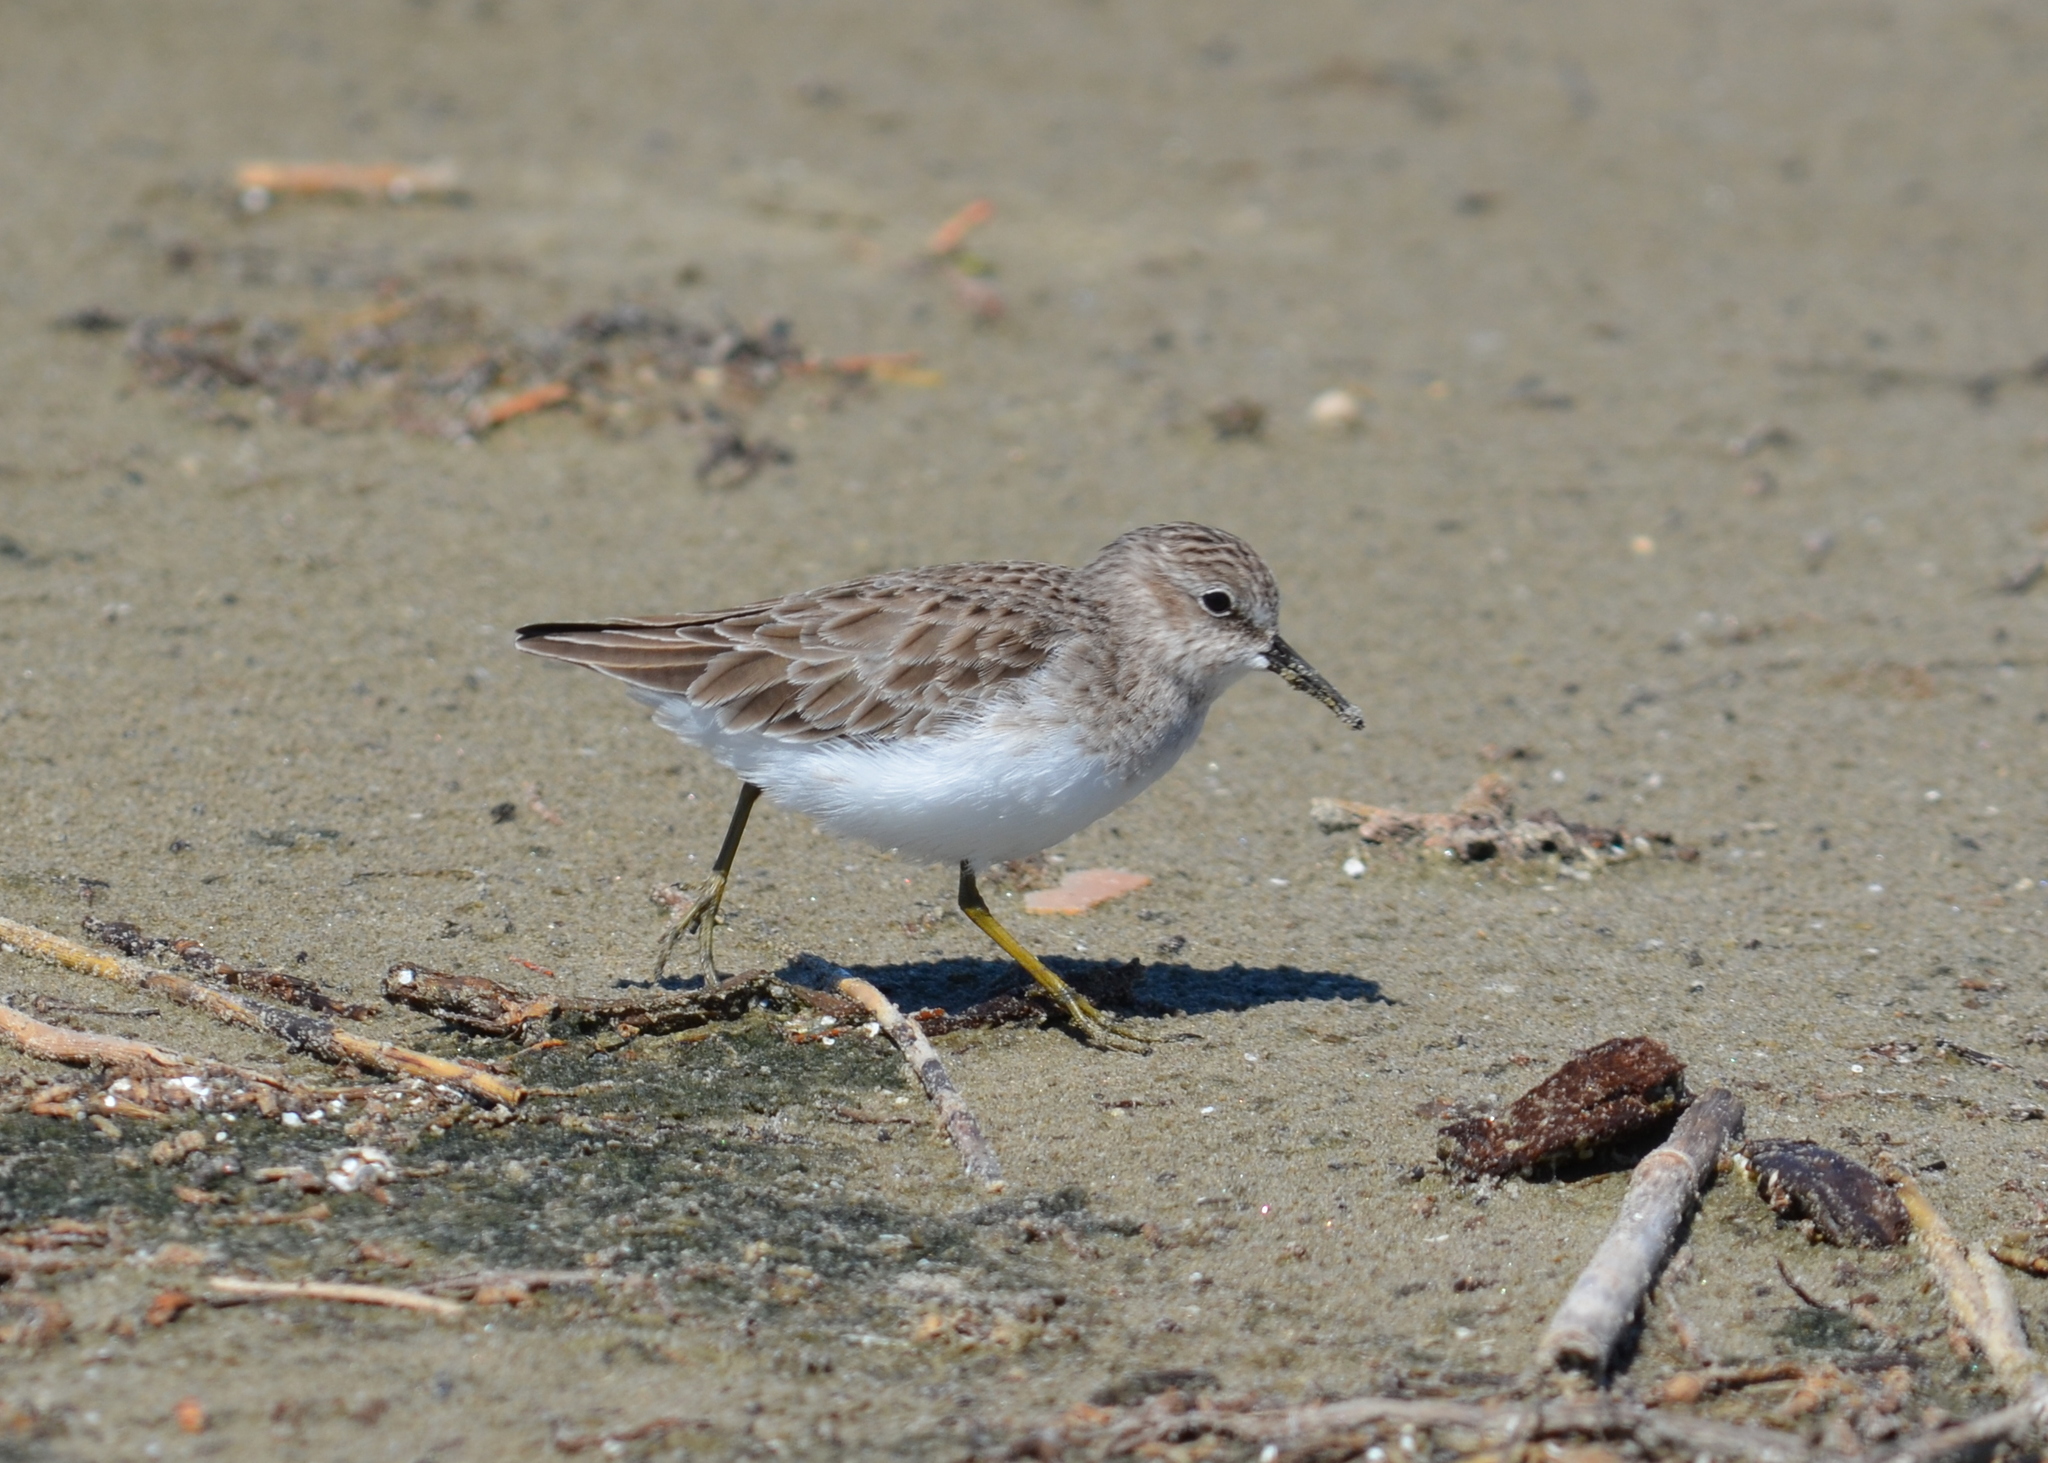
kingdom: Animalia
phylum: Chordata
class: Aves
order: Charadriiformes
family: Scolopacidae
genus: Calidris
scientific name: Calidris minutilla
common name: Least sandpiper
